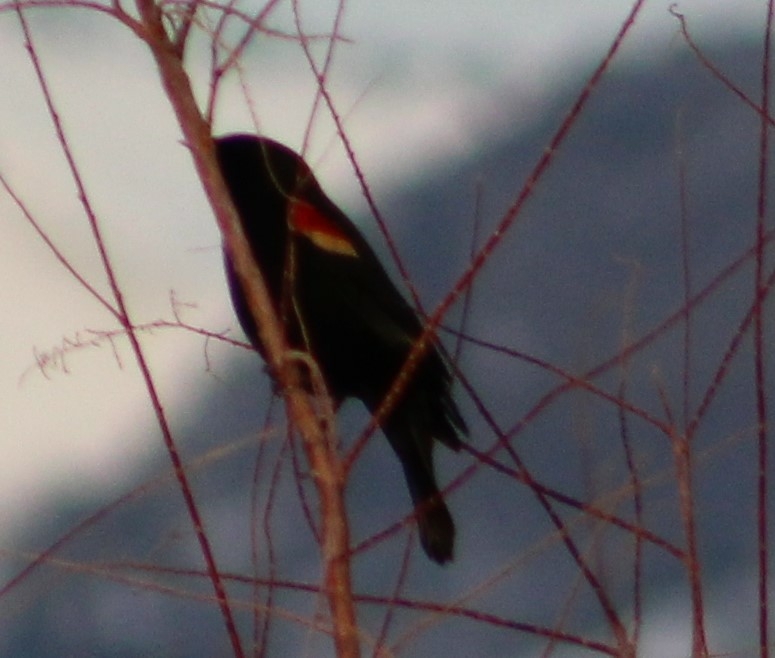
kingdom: Animalia
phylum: Chordata
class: Aves
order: Passeriformes
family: Icteridae
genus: Agelaius
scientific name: Agelaius phoeniceus
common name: Red-winged blackbird
